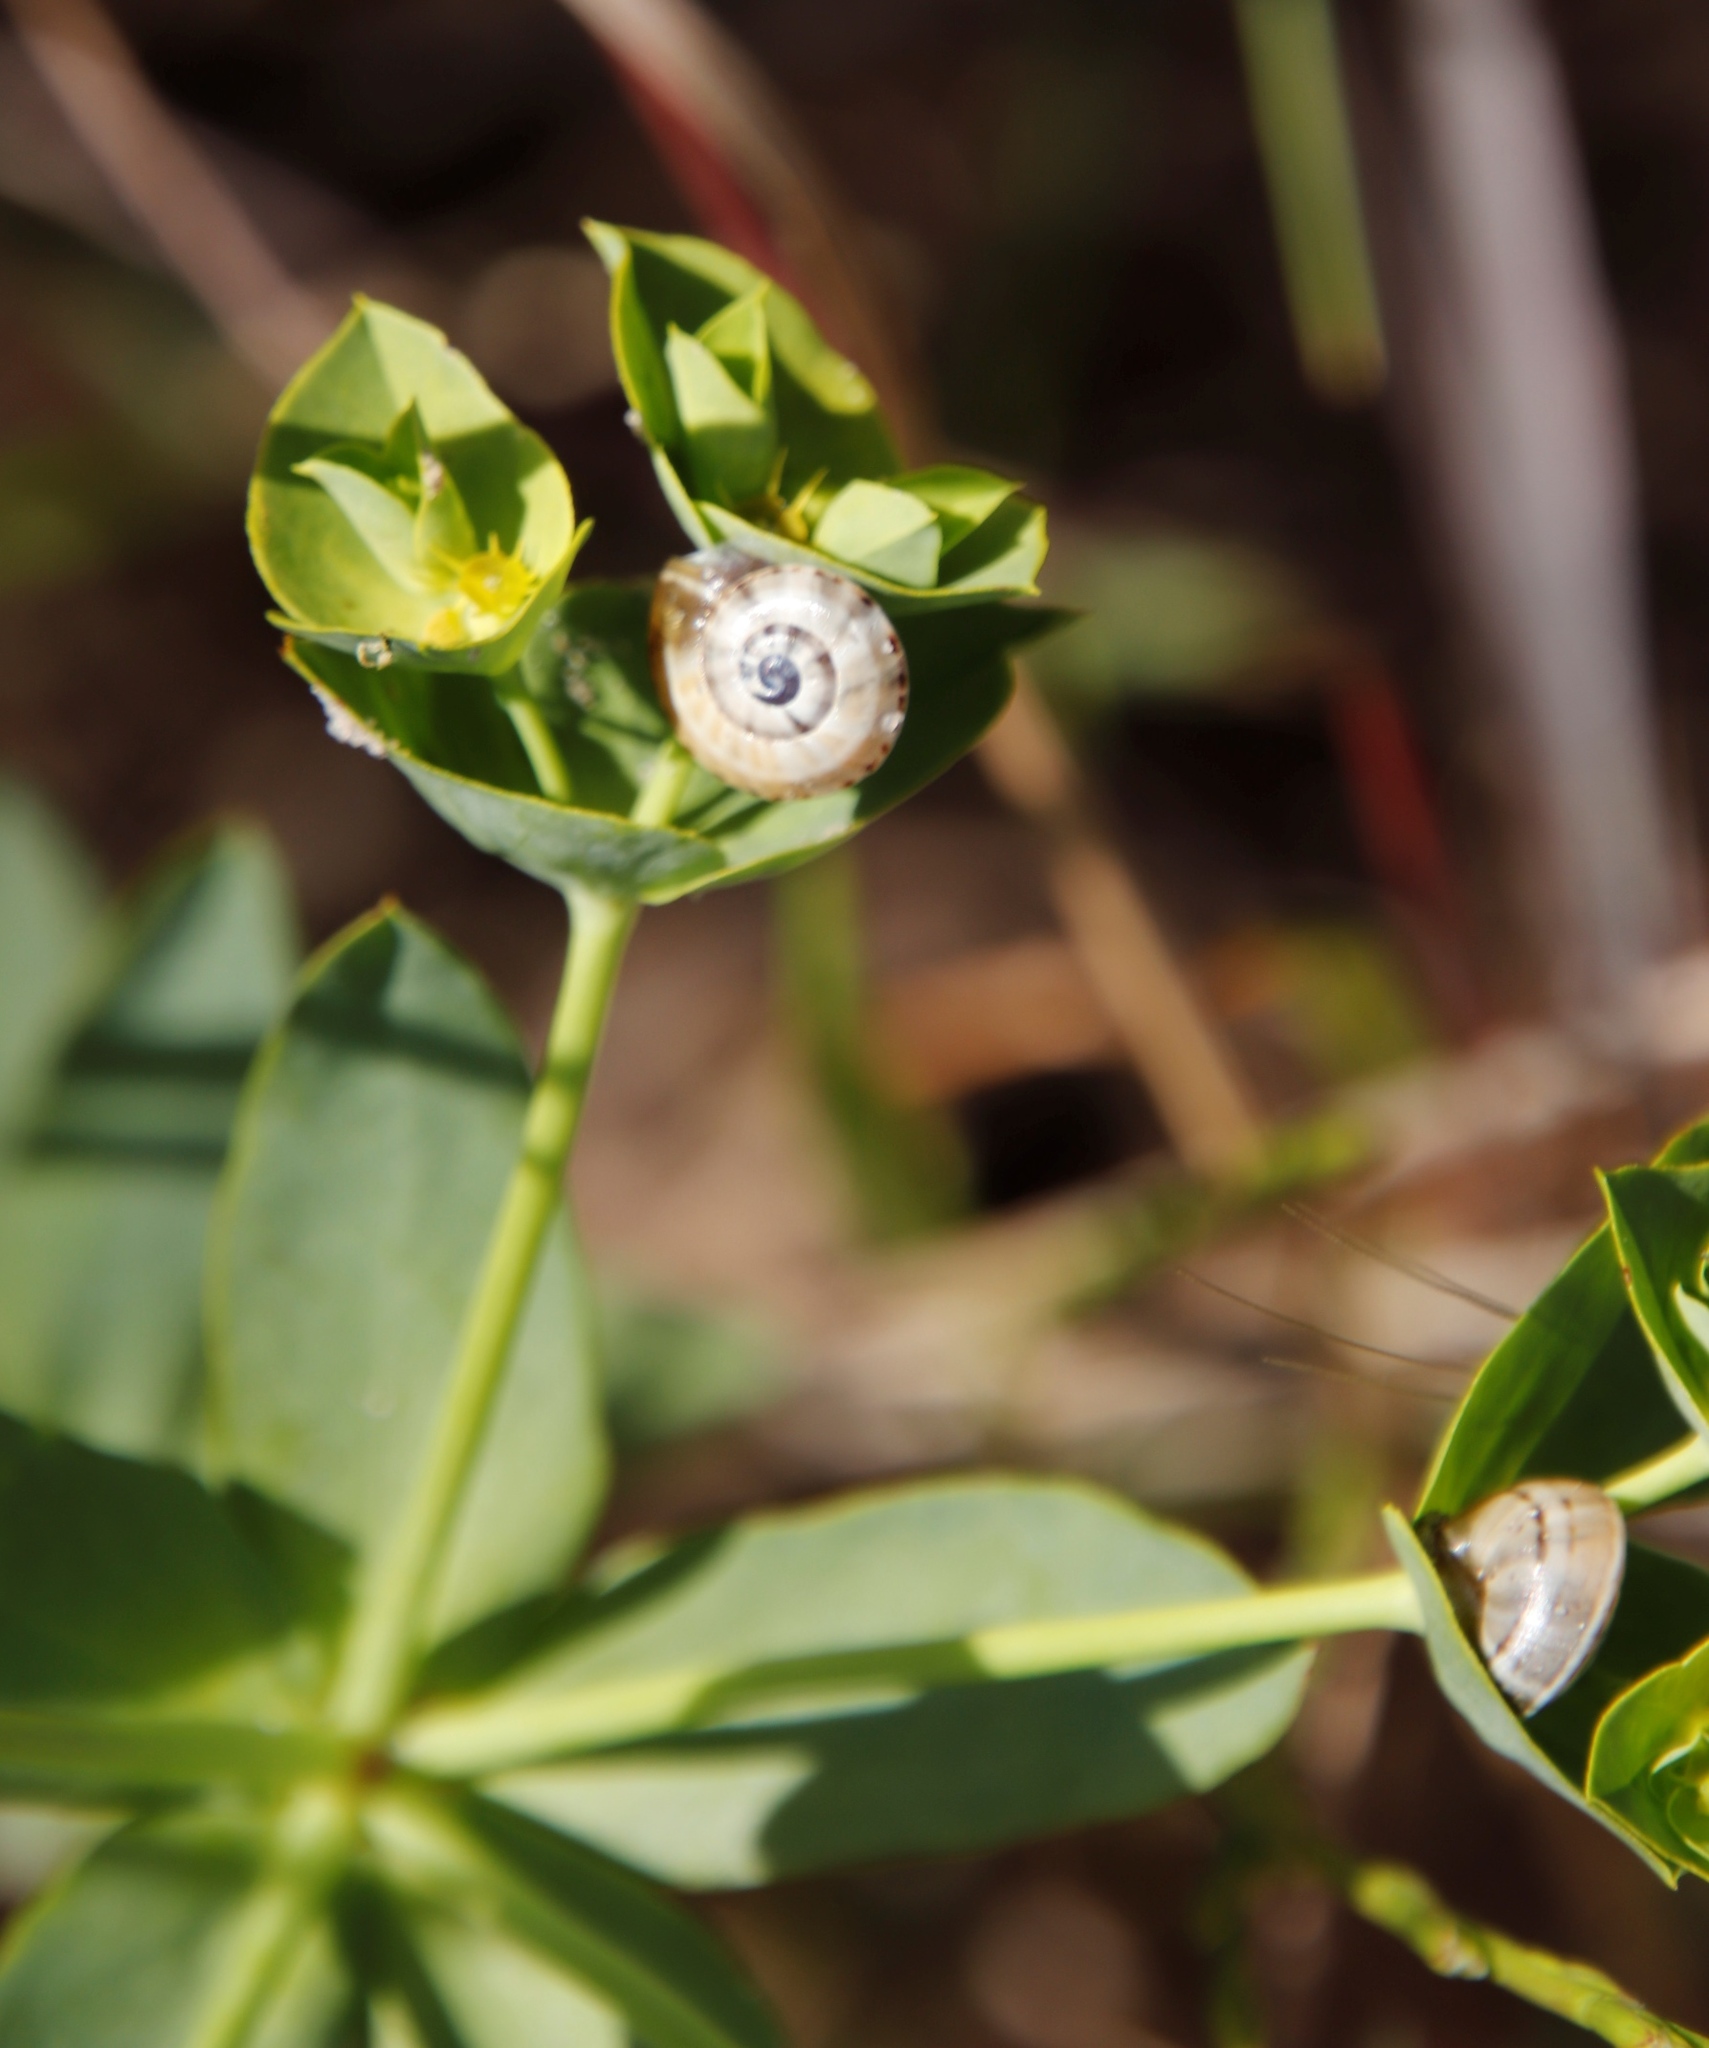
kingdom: Plantae
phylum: Tracheophyta
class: Magnoliopsida
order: Malpighiales
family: Euphorbiaceae
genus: Euphorbia
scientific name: Euphorbia terracina
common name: Geraldton carnation weed
